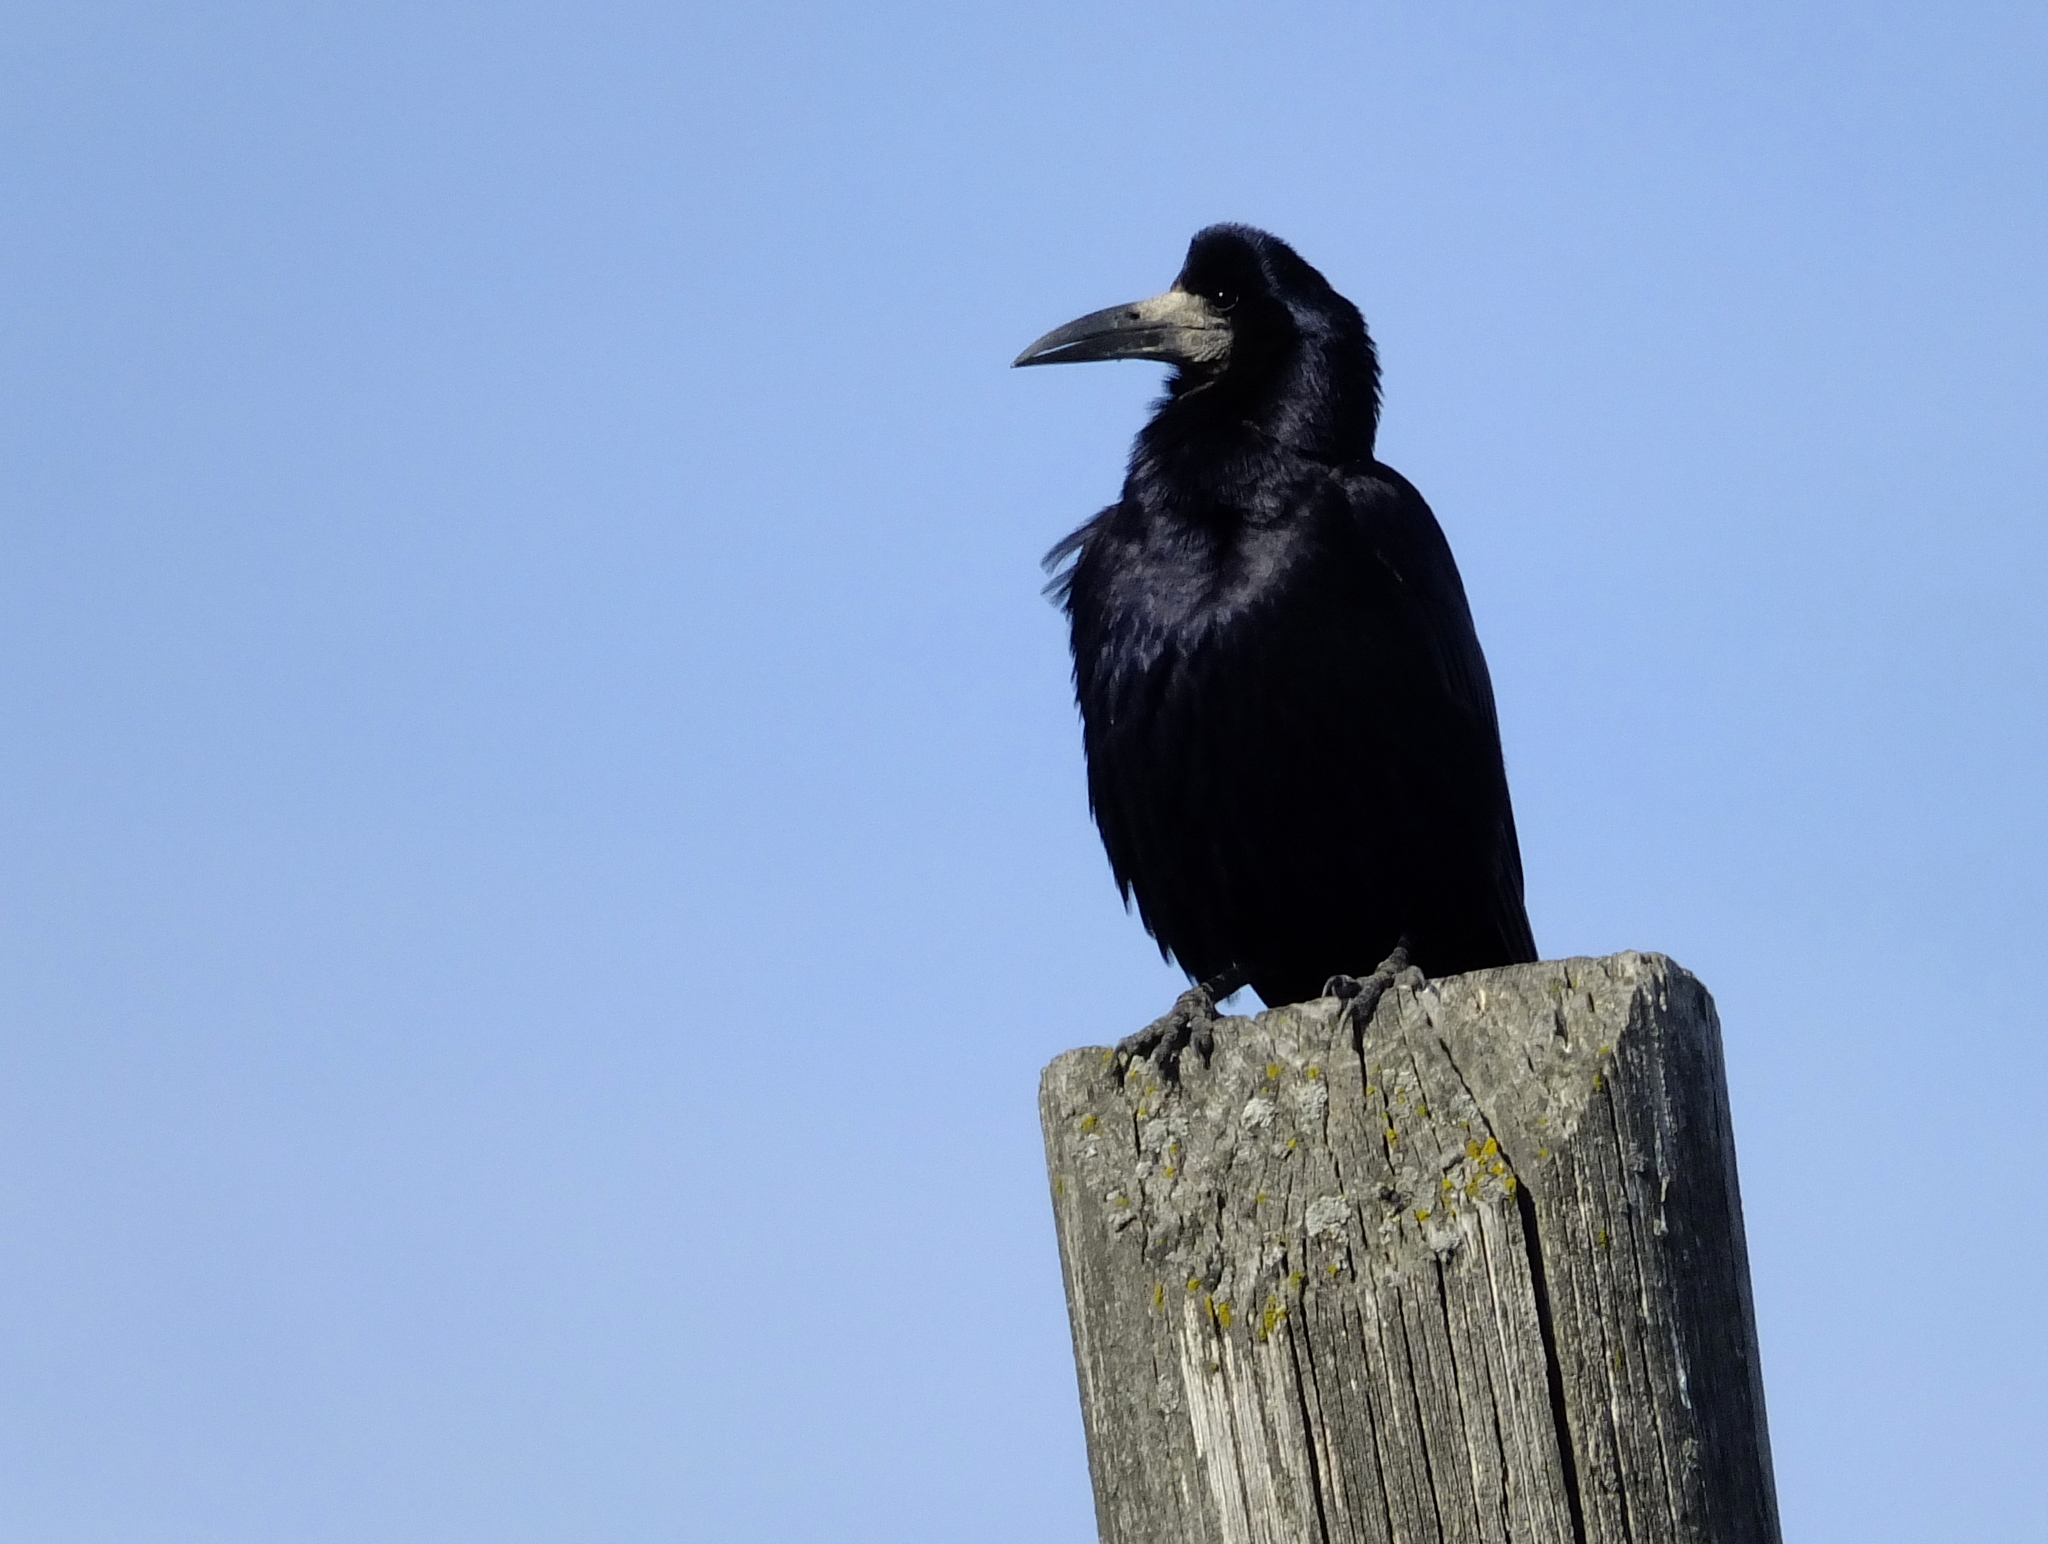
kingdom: Animalia
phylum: Chordata
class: Aves
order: Passeriformes
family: Corvidae
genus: Corvus
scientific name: Corvus frugilegus
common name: Rook
